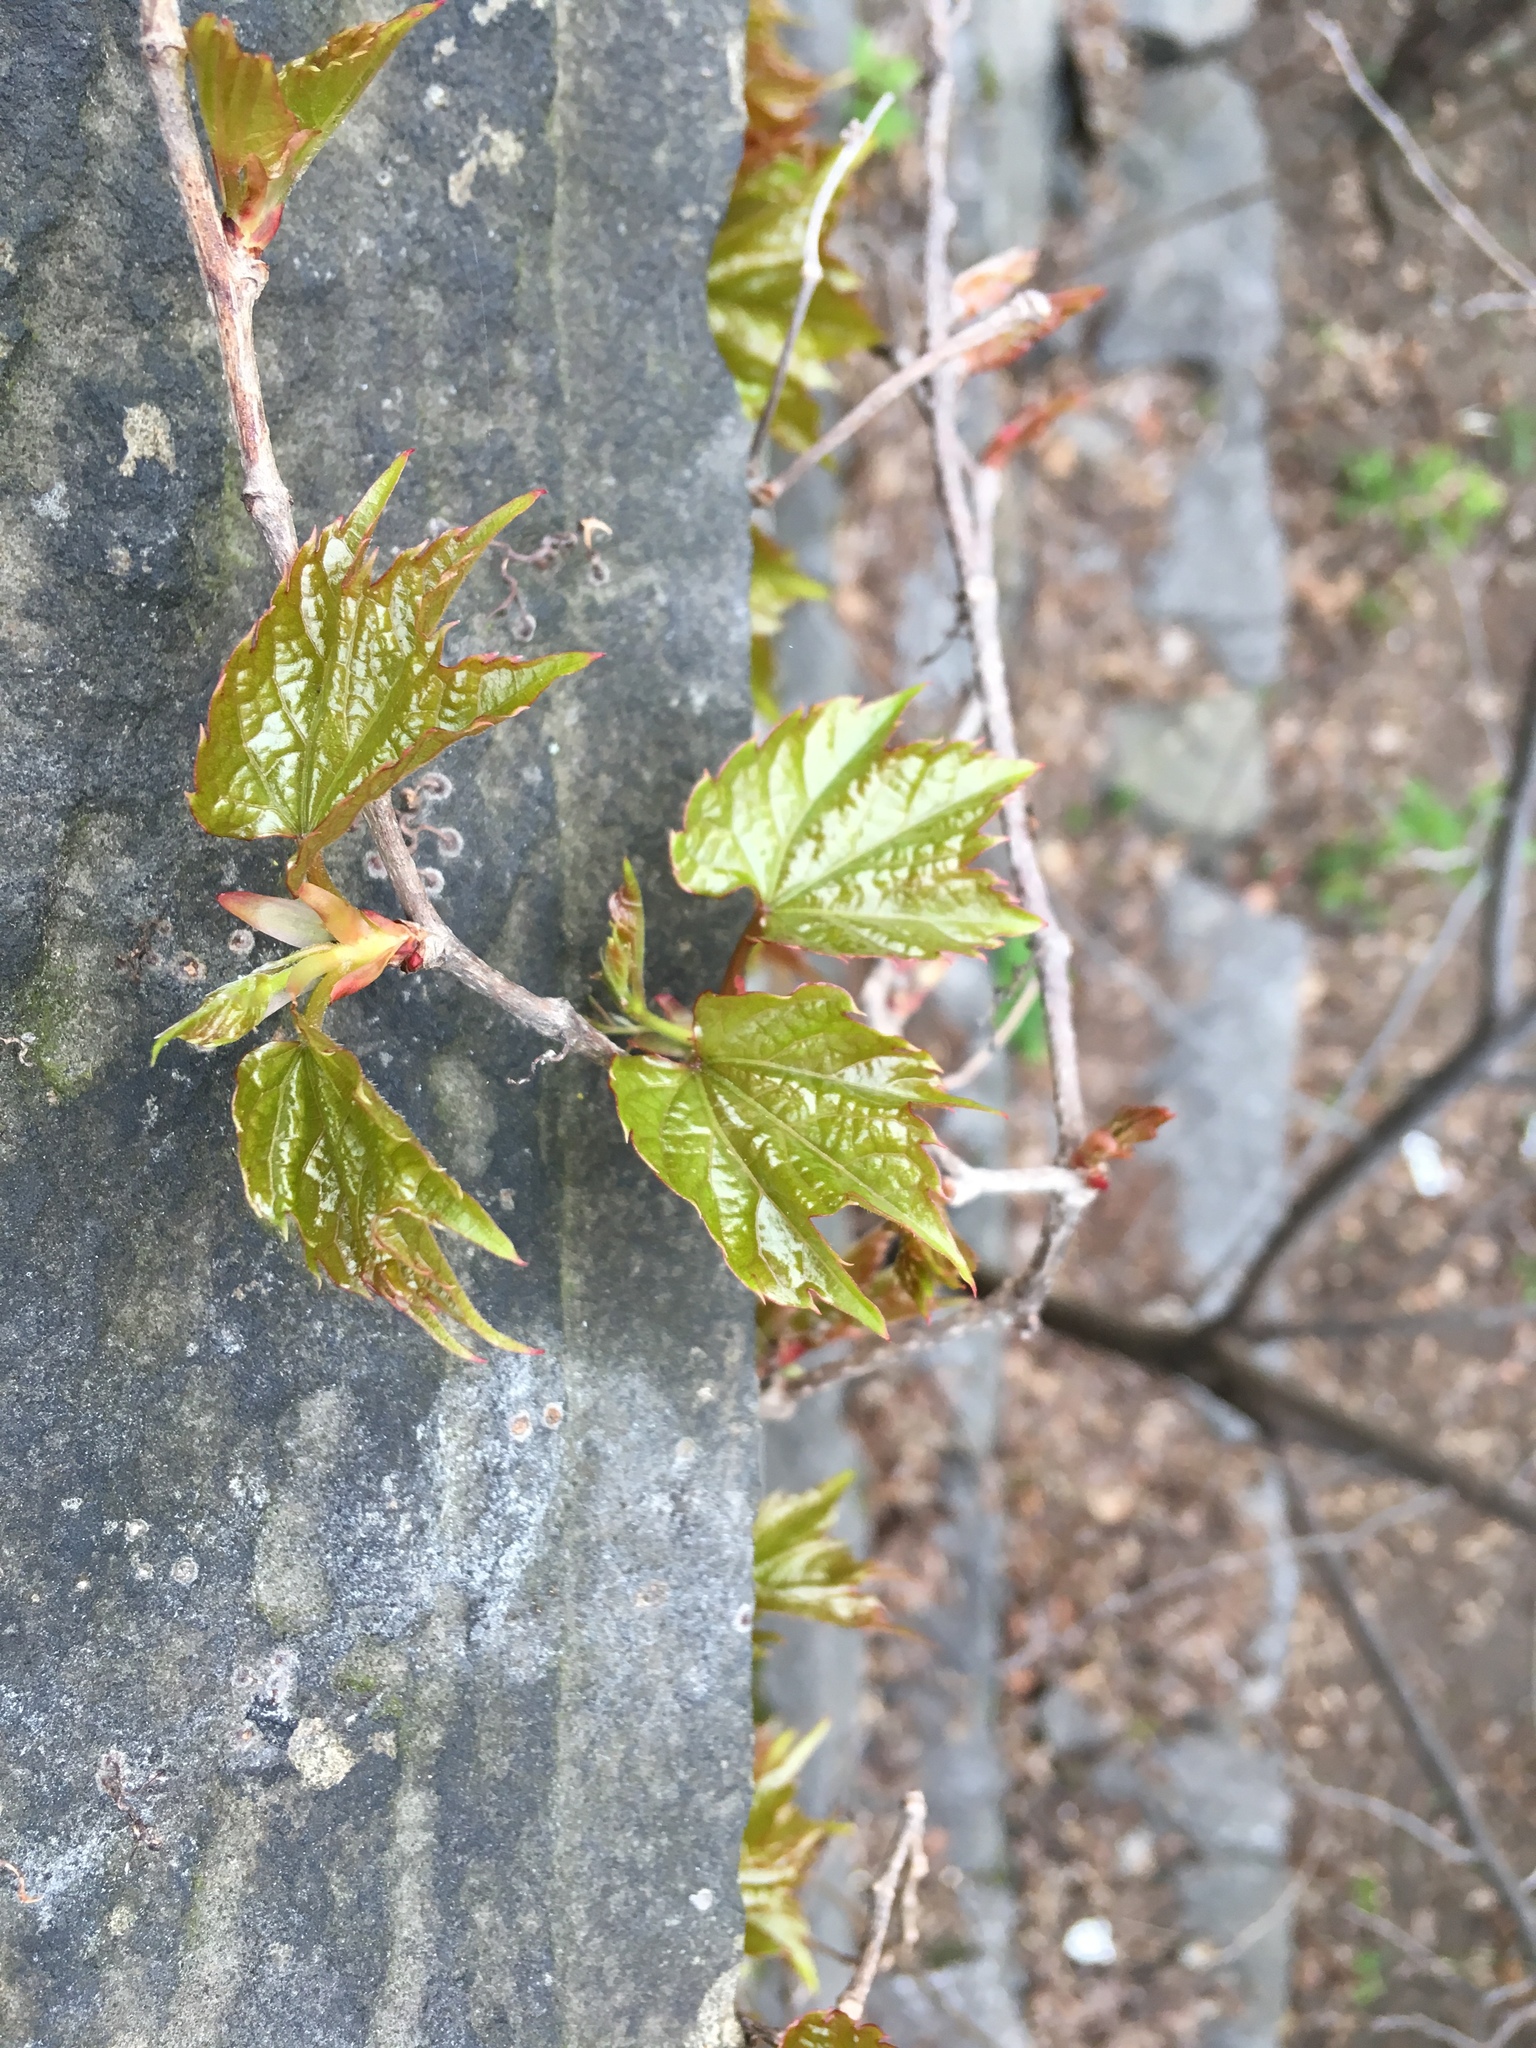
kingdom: Plantae
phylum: Tracheophyta
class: Magnoliopsida
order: Vitales
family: Vitaceae
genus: Parthenocissus
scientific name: Parthenocissus tricuspidata
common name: Boston ivy
